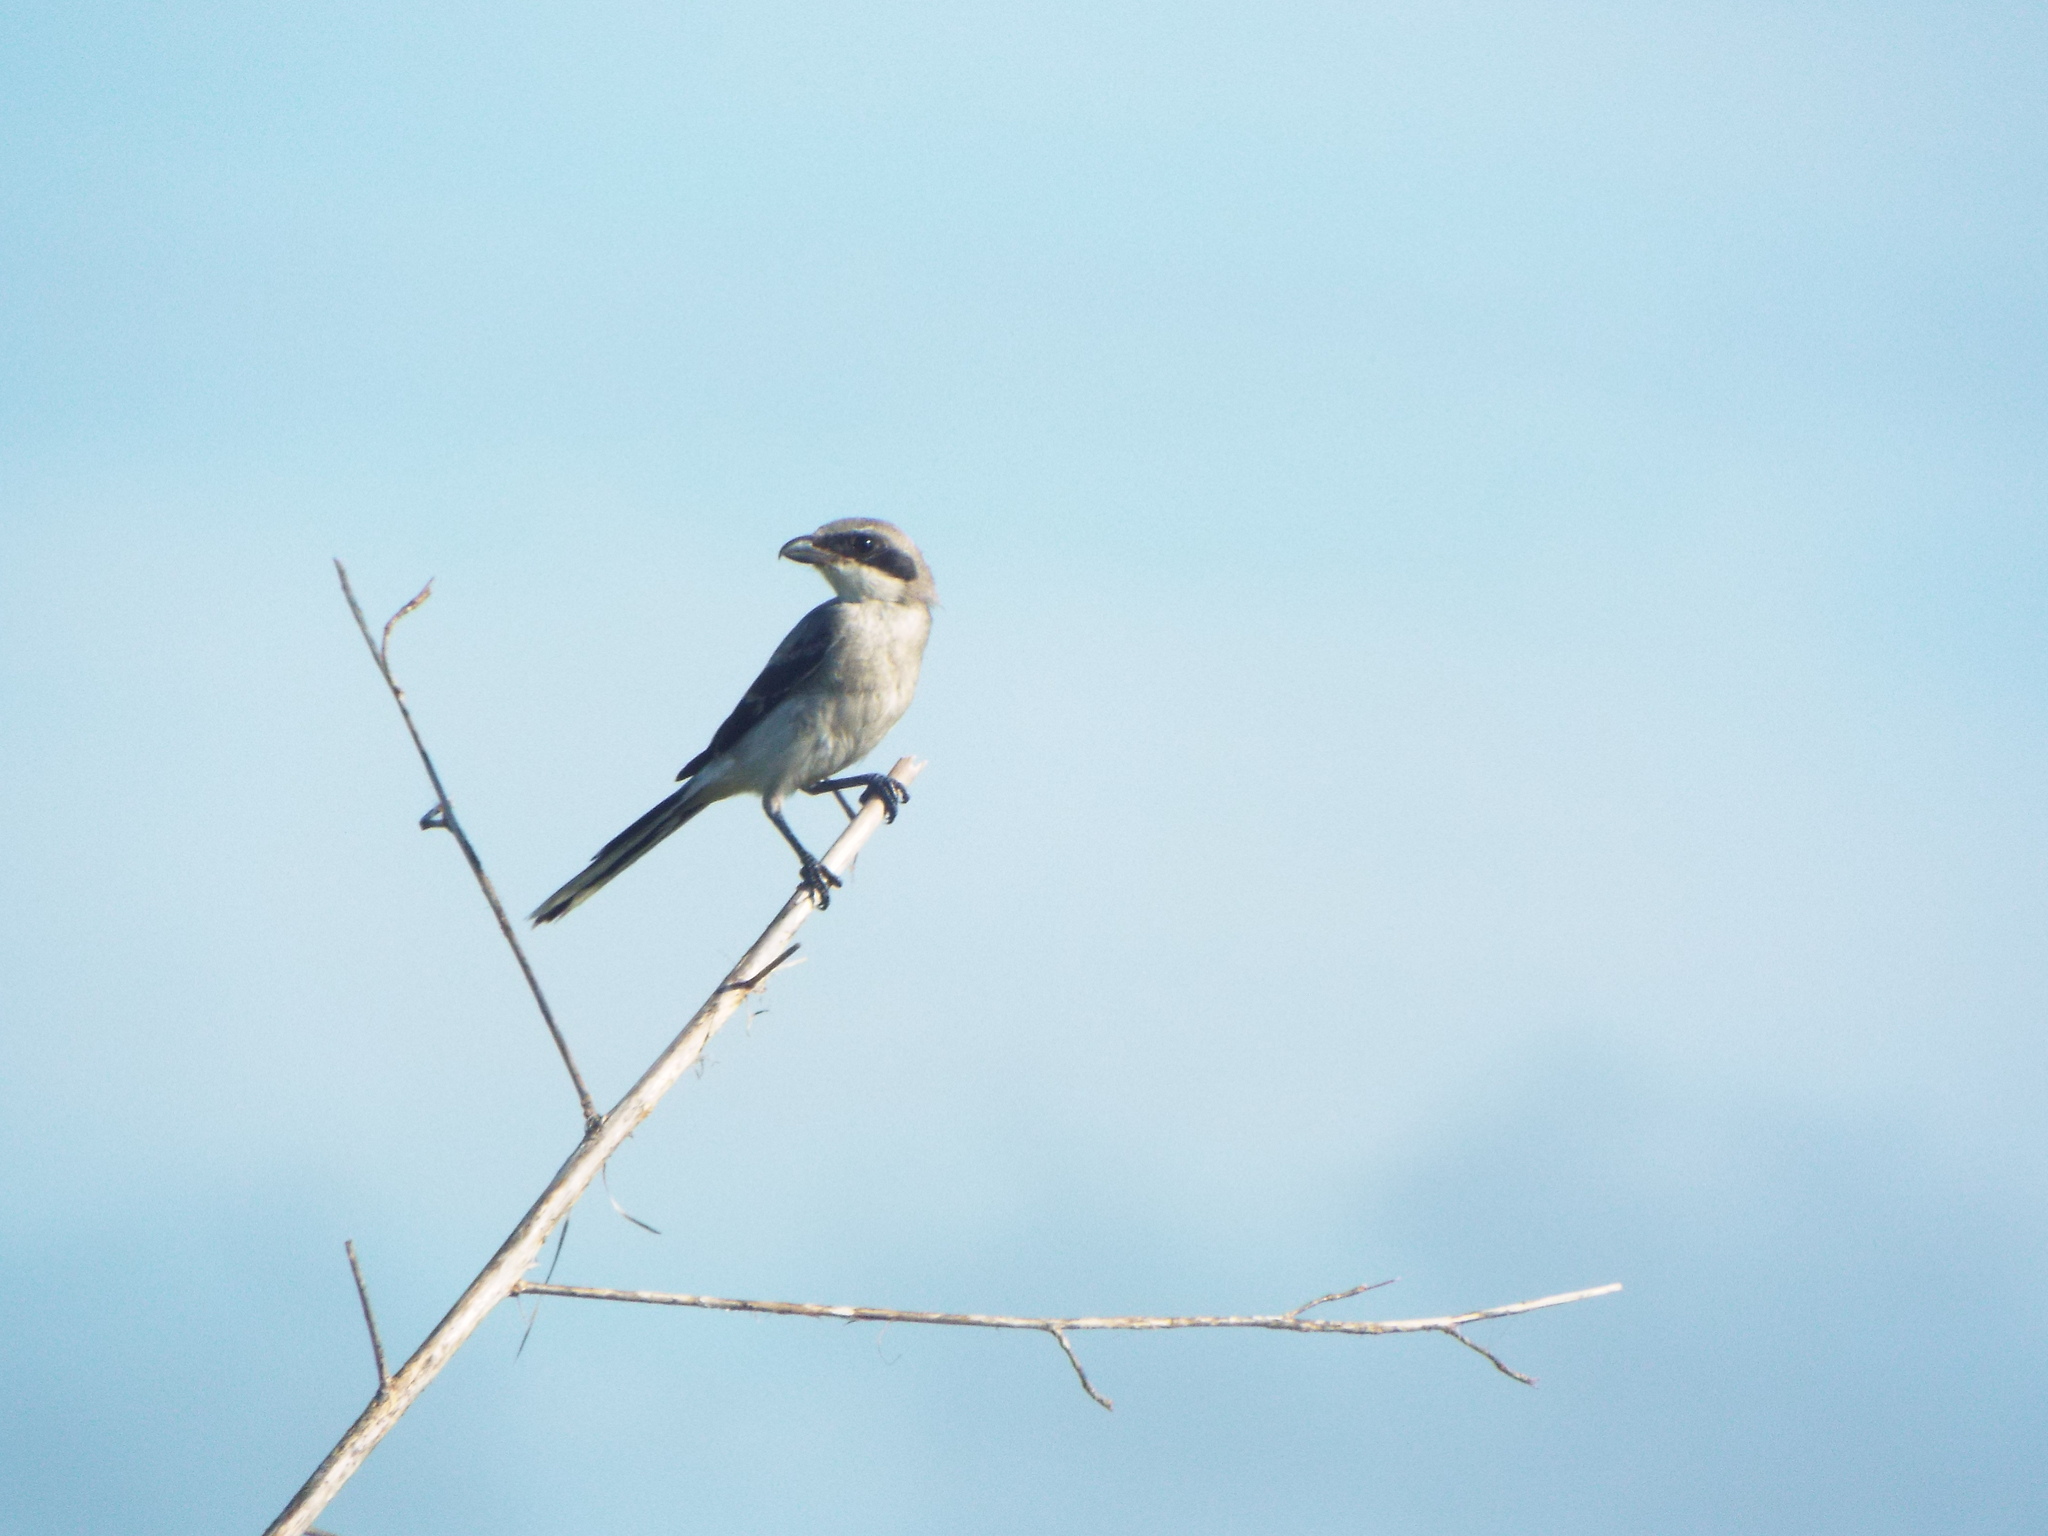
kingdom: Animalia
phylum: Chordata
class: Aves
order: Passeriformes
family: Laniidae
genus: Lanius
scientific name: Lanius ludovicianus
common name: Loggerhead shrike
